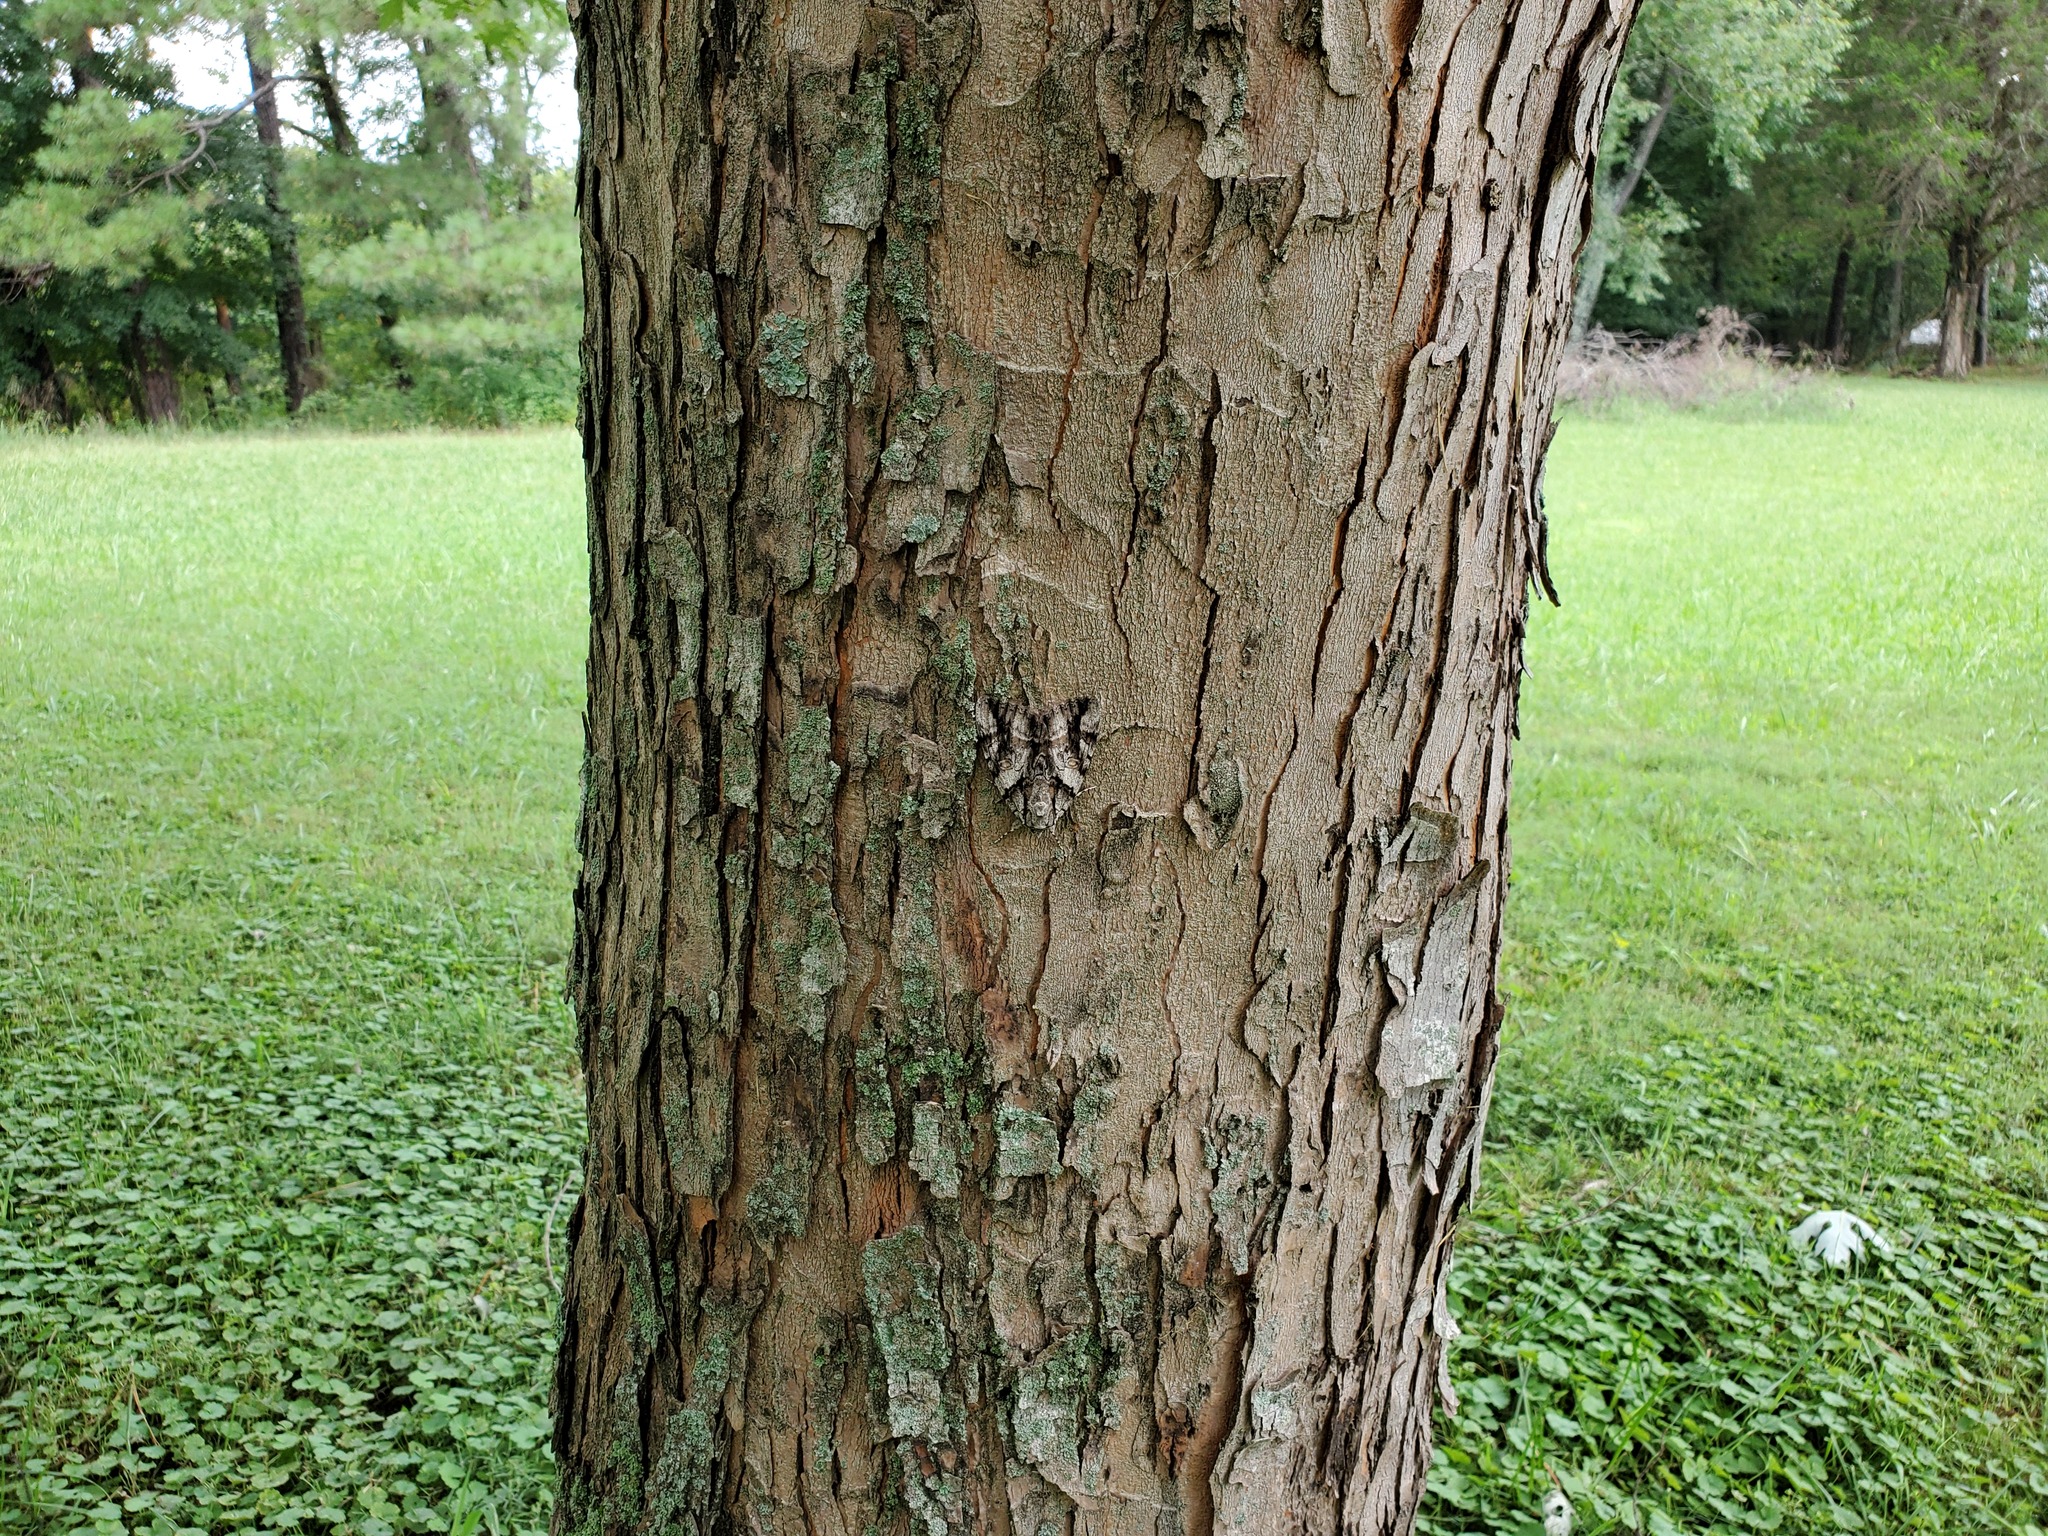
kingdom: Animalia
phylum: Arthropoda
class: Insecta
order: Lepidoptera
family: Erebidae
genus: Catocala
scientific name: Catocala vidua
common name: The widow
